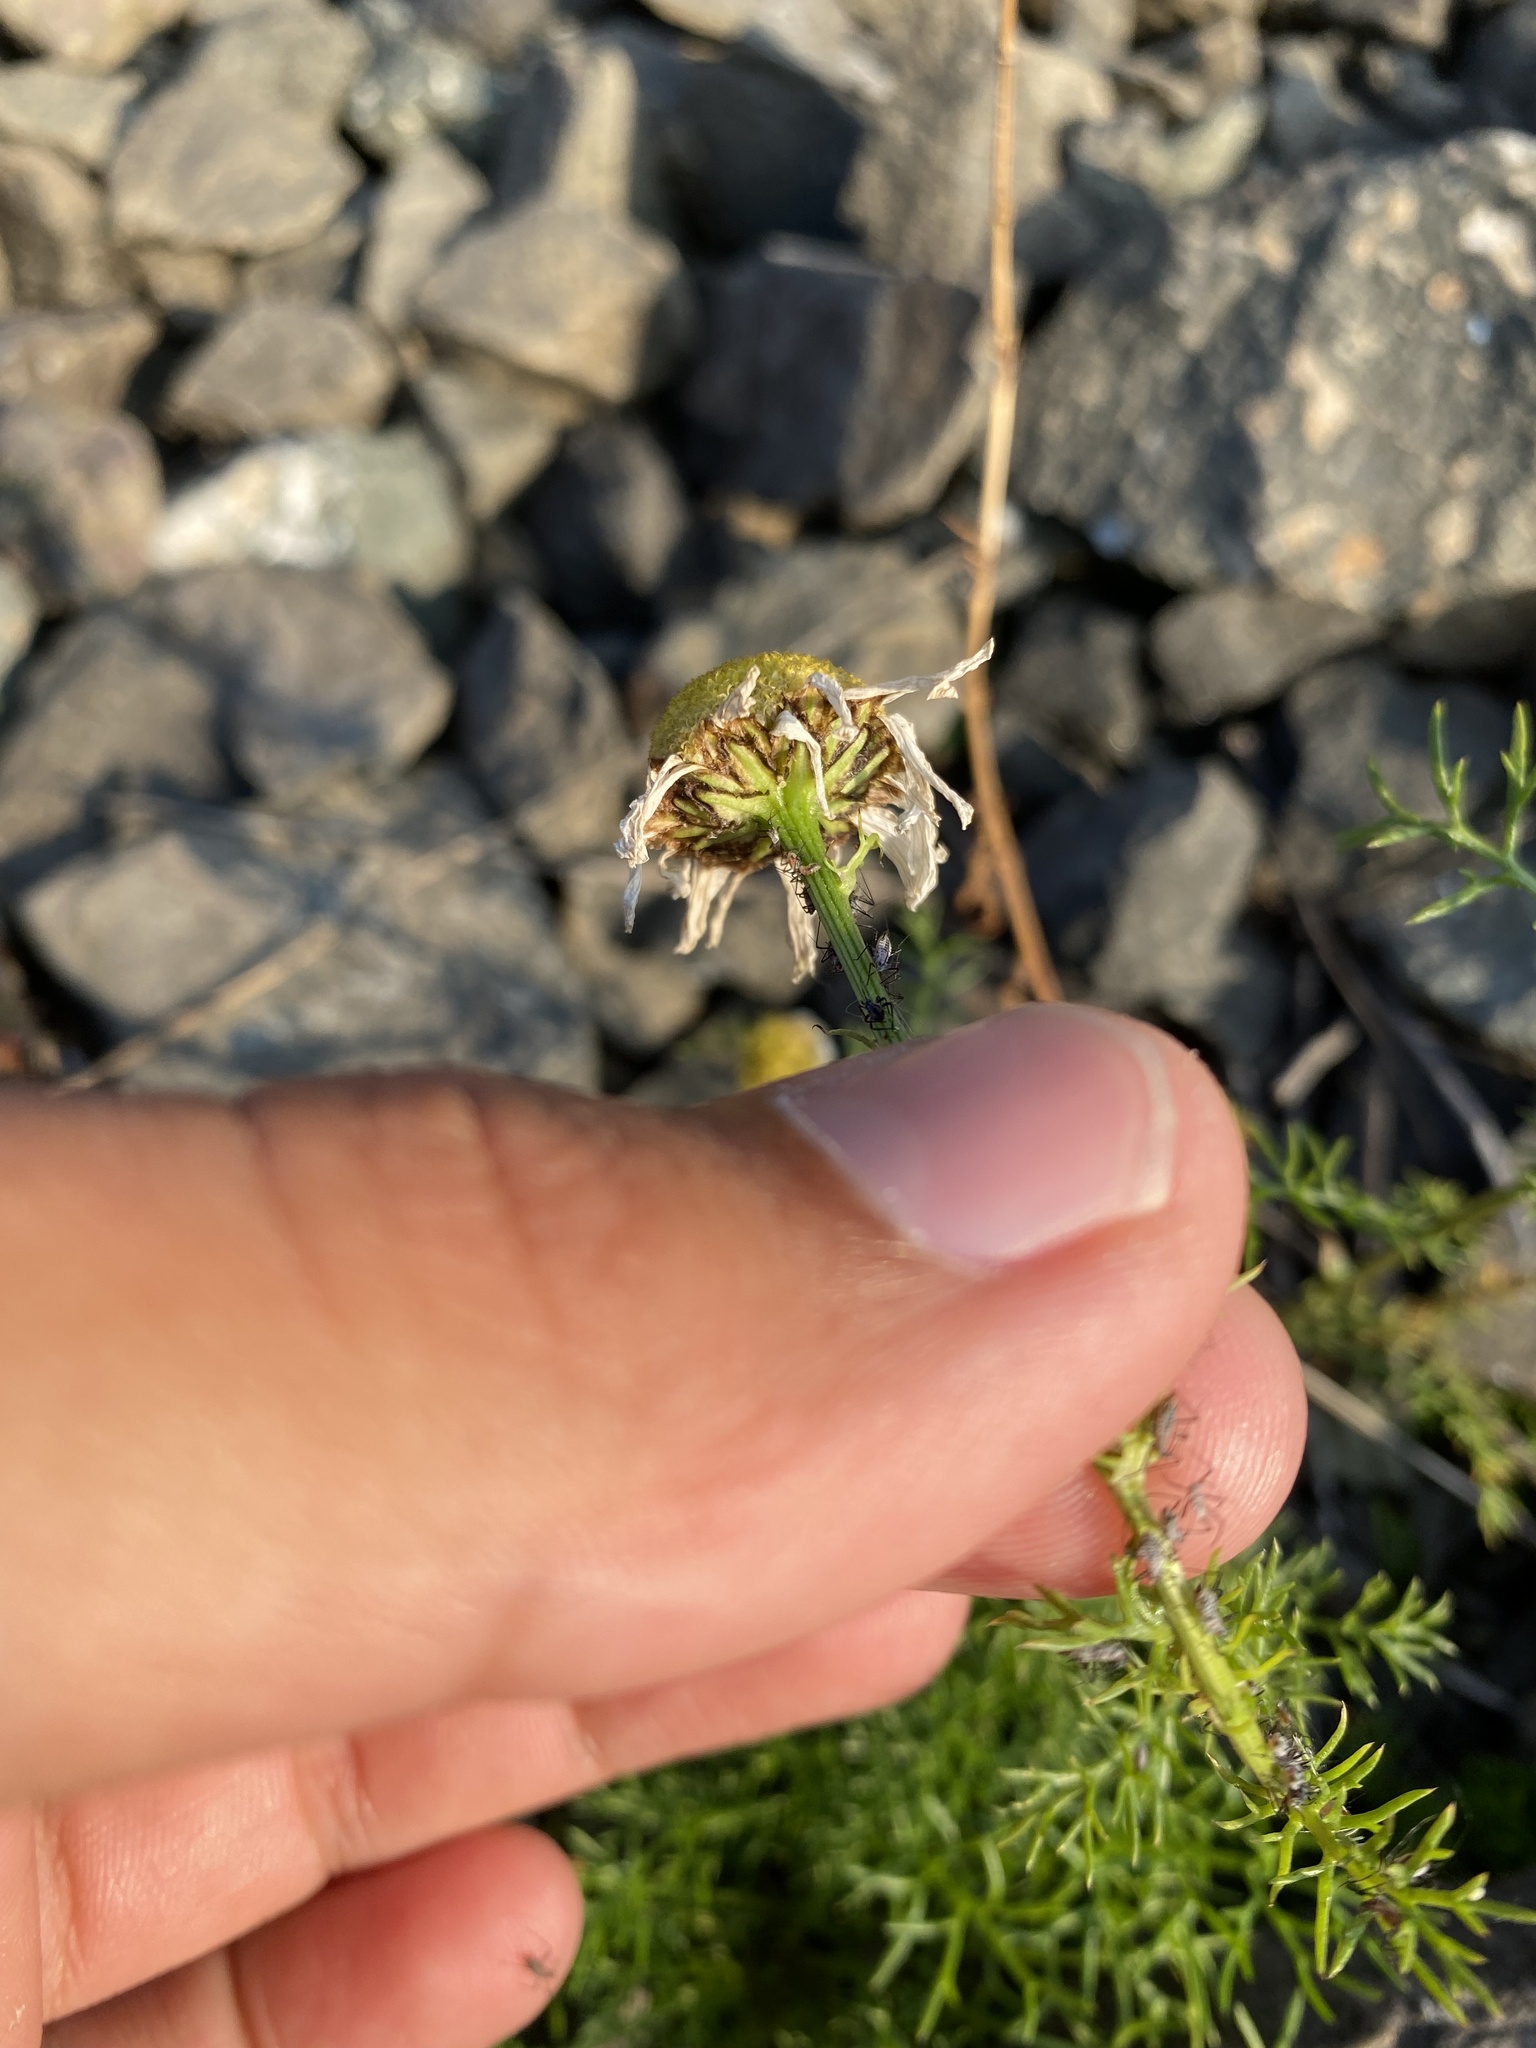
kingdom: Plantae
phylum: Tracheophyta
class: Magnoliopsida
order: Asterales
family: Asteraceae
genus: Tripleurospermum
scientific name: Tripleurospermum hookeri
